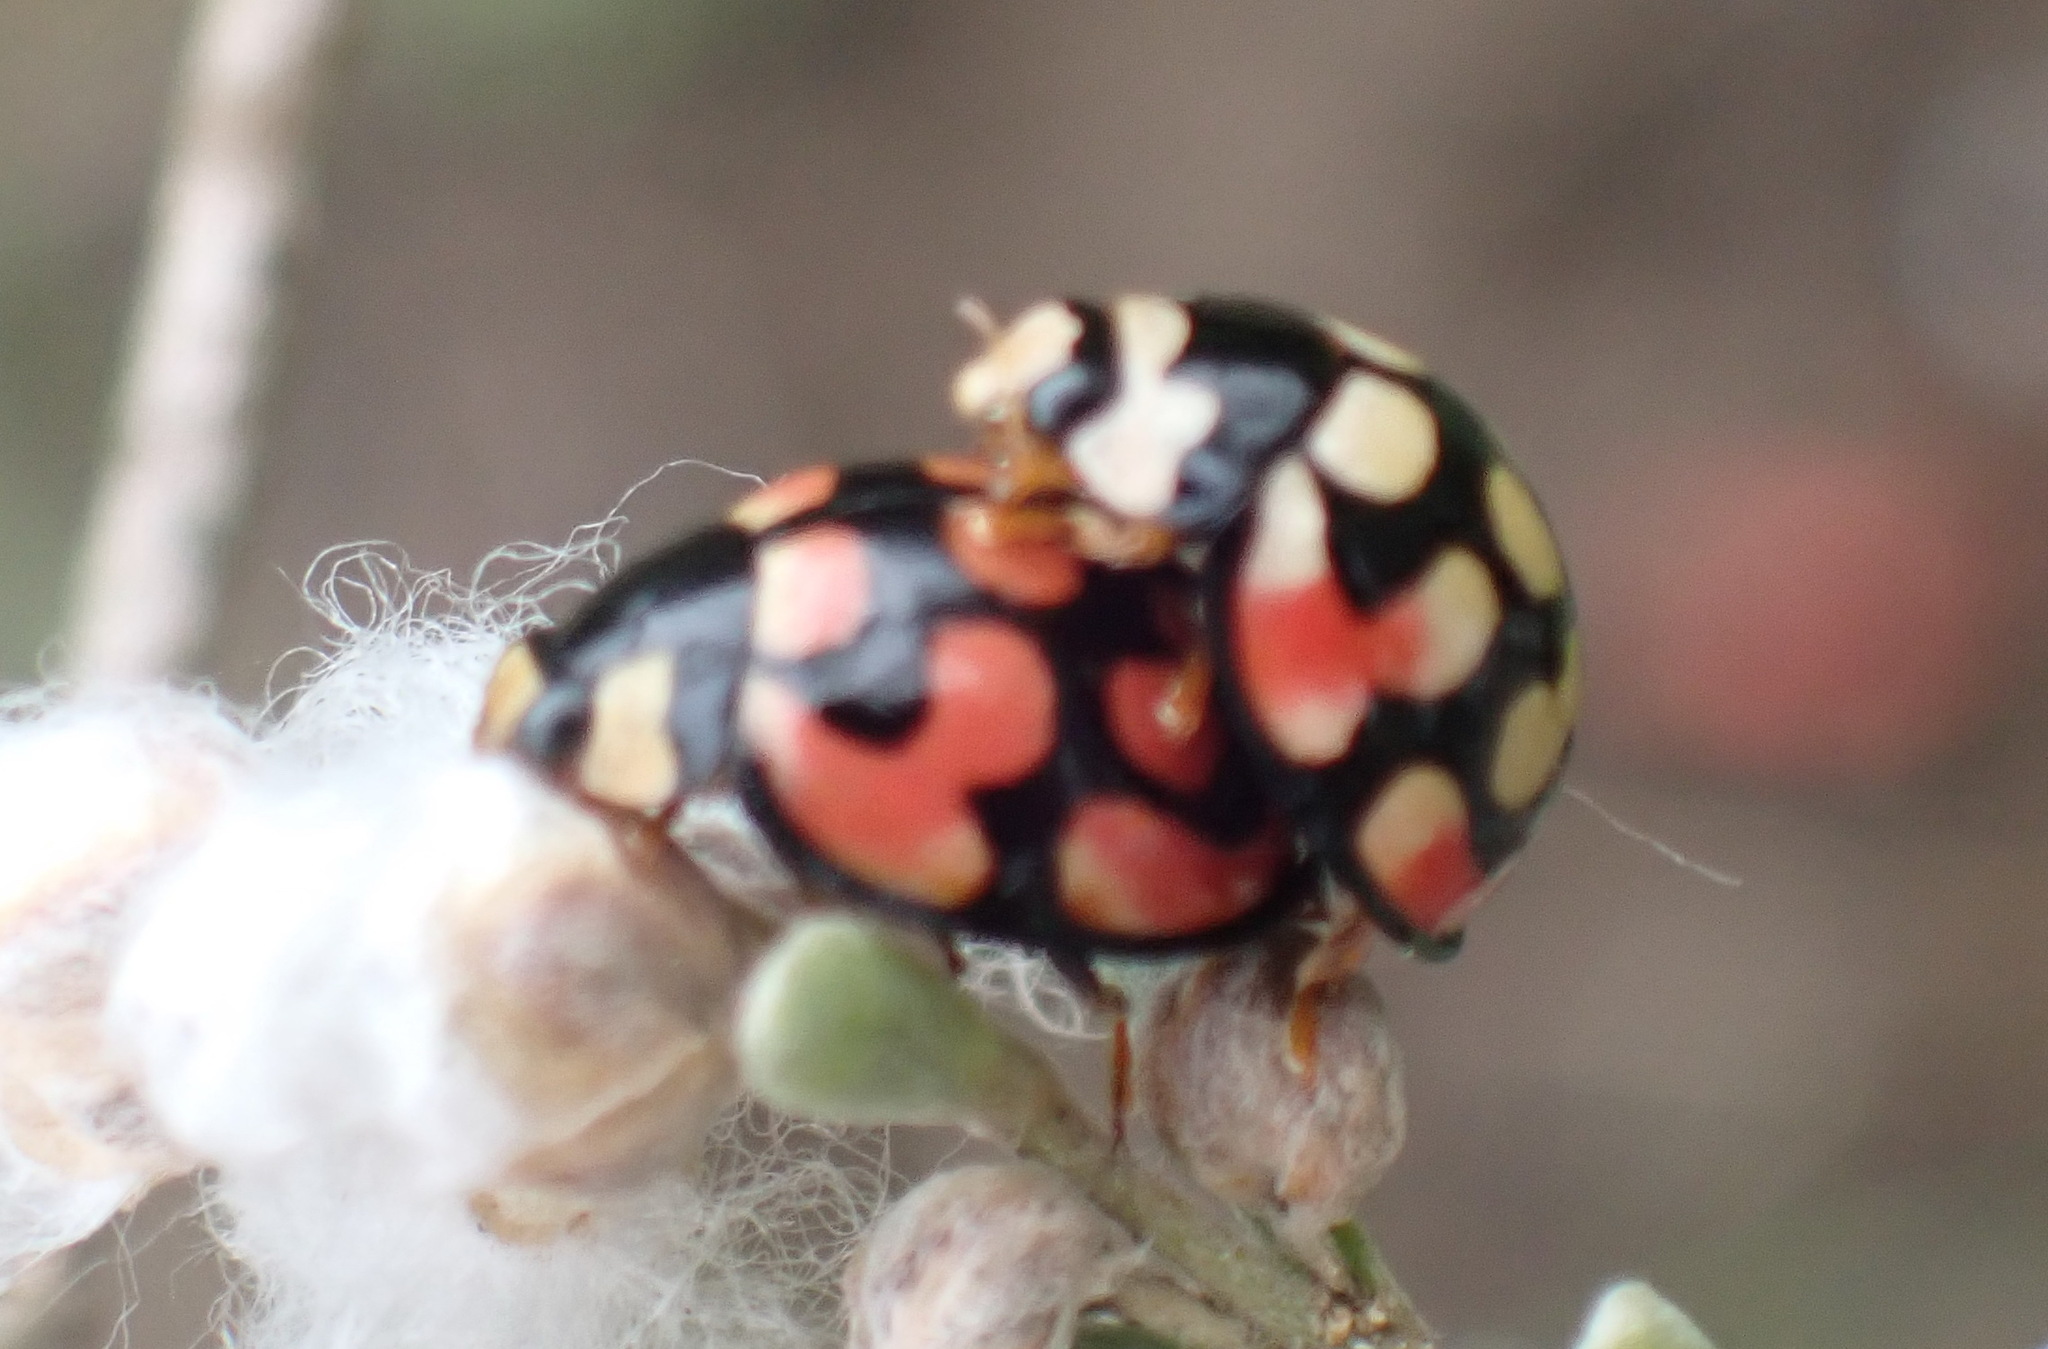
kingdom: Animalia
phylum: Arthropoda
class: Insecta
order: Coleoptera
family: Coccinellidae
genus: Cheilomenes
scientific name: Cheilomenes lunata
